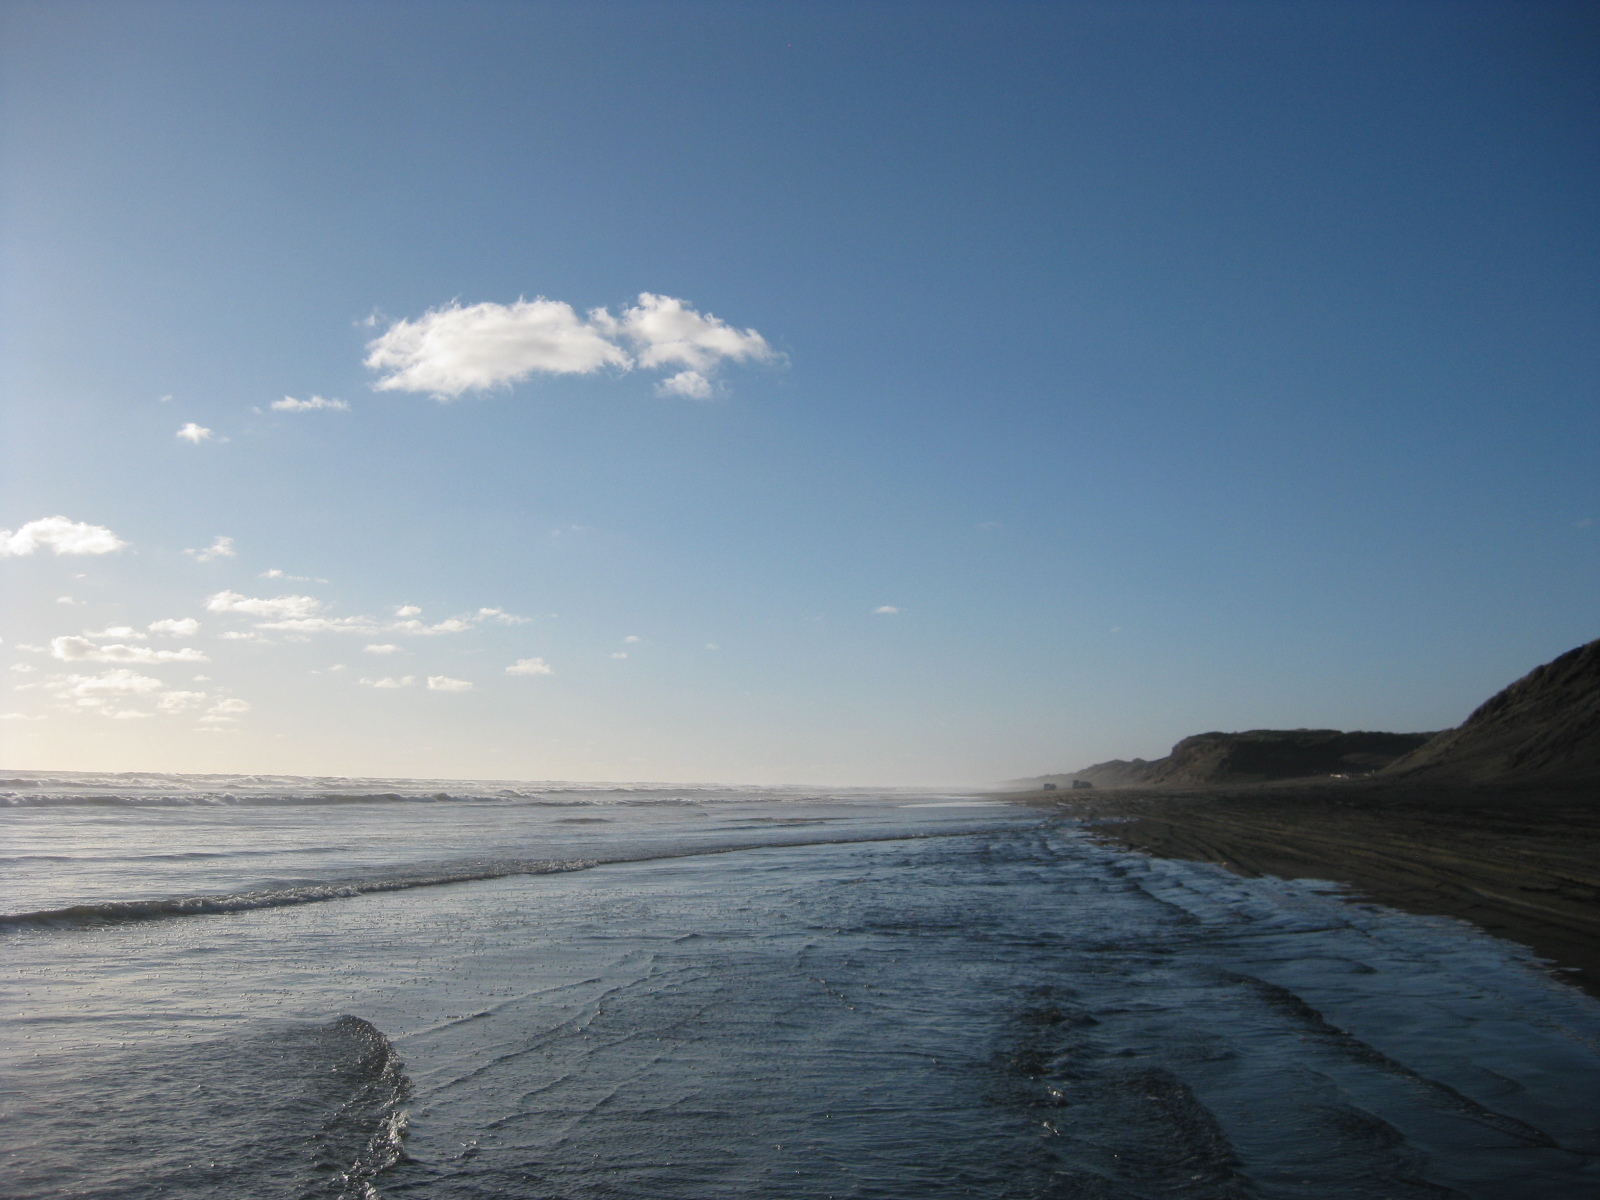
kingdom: Animalia
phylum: Mollusca
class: Bivalvia
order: Venerida
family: Mactridae
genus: Spisula
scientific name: Spisula murchisoni
